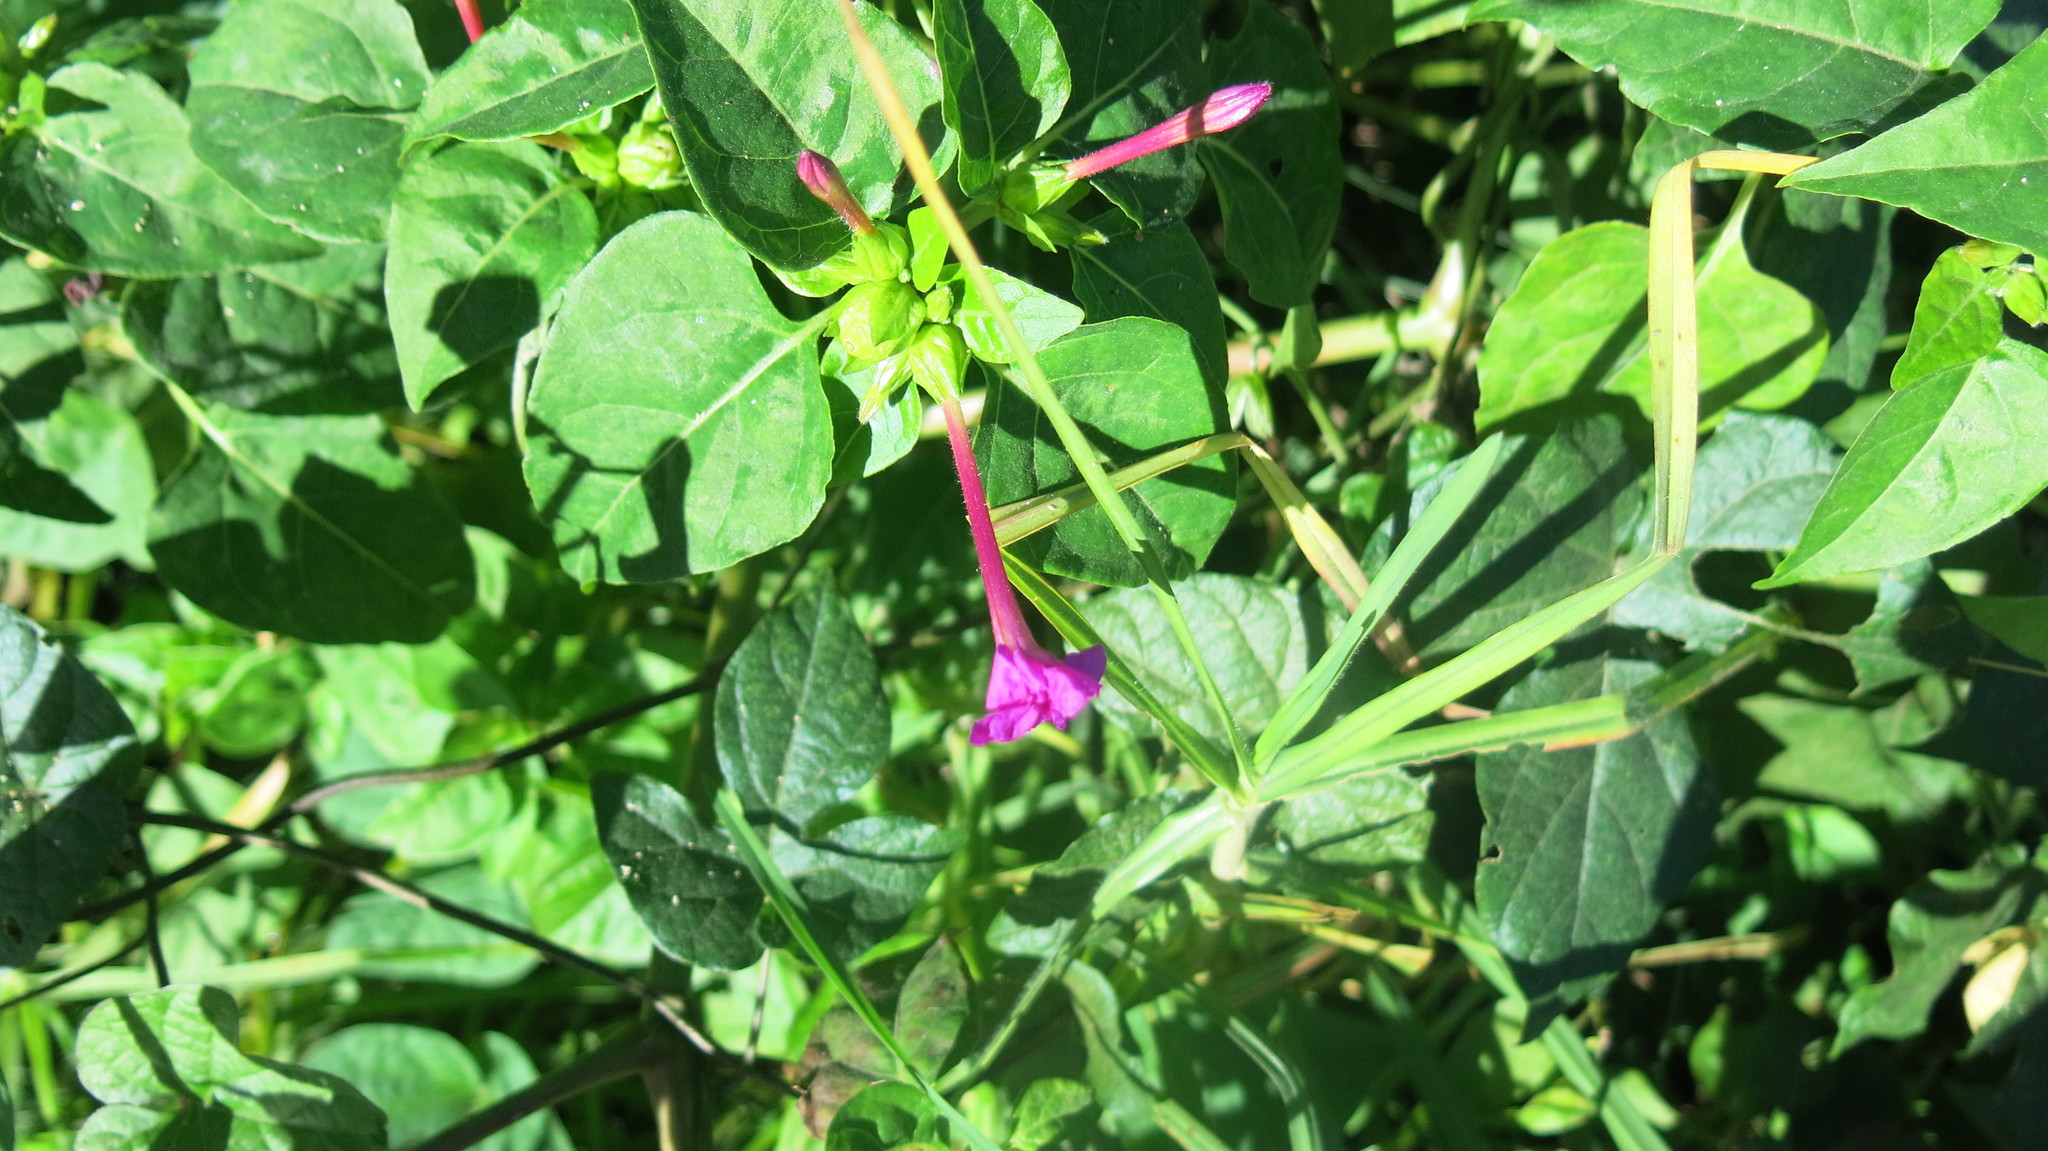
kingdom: Plantae
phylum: Tracheophyta
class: Magnoliopsida
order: Caryophyllales
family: Nyctaginaceae
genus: Mirabilis
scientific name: Mirabilis jalapa
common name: Marvel-of-peru
